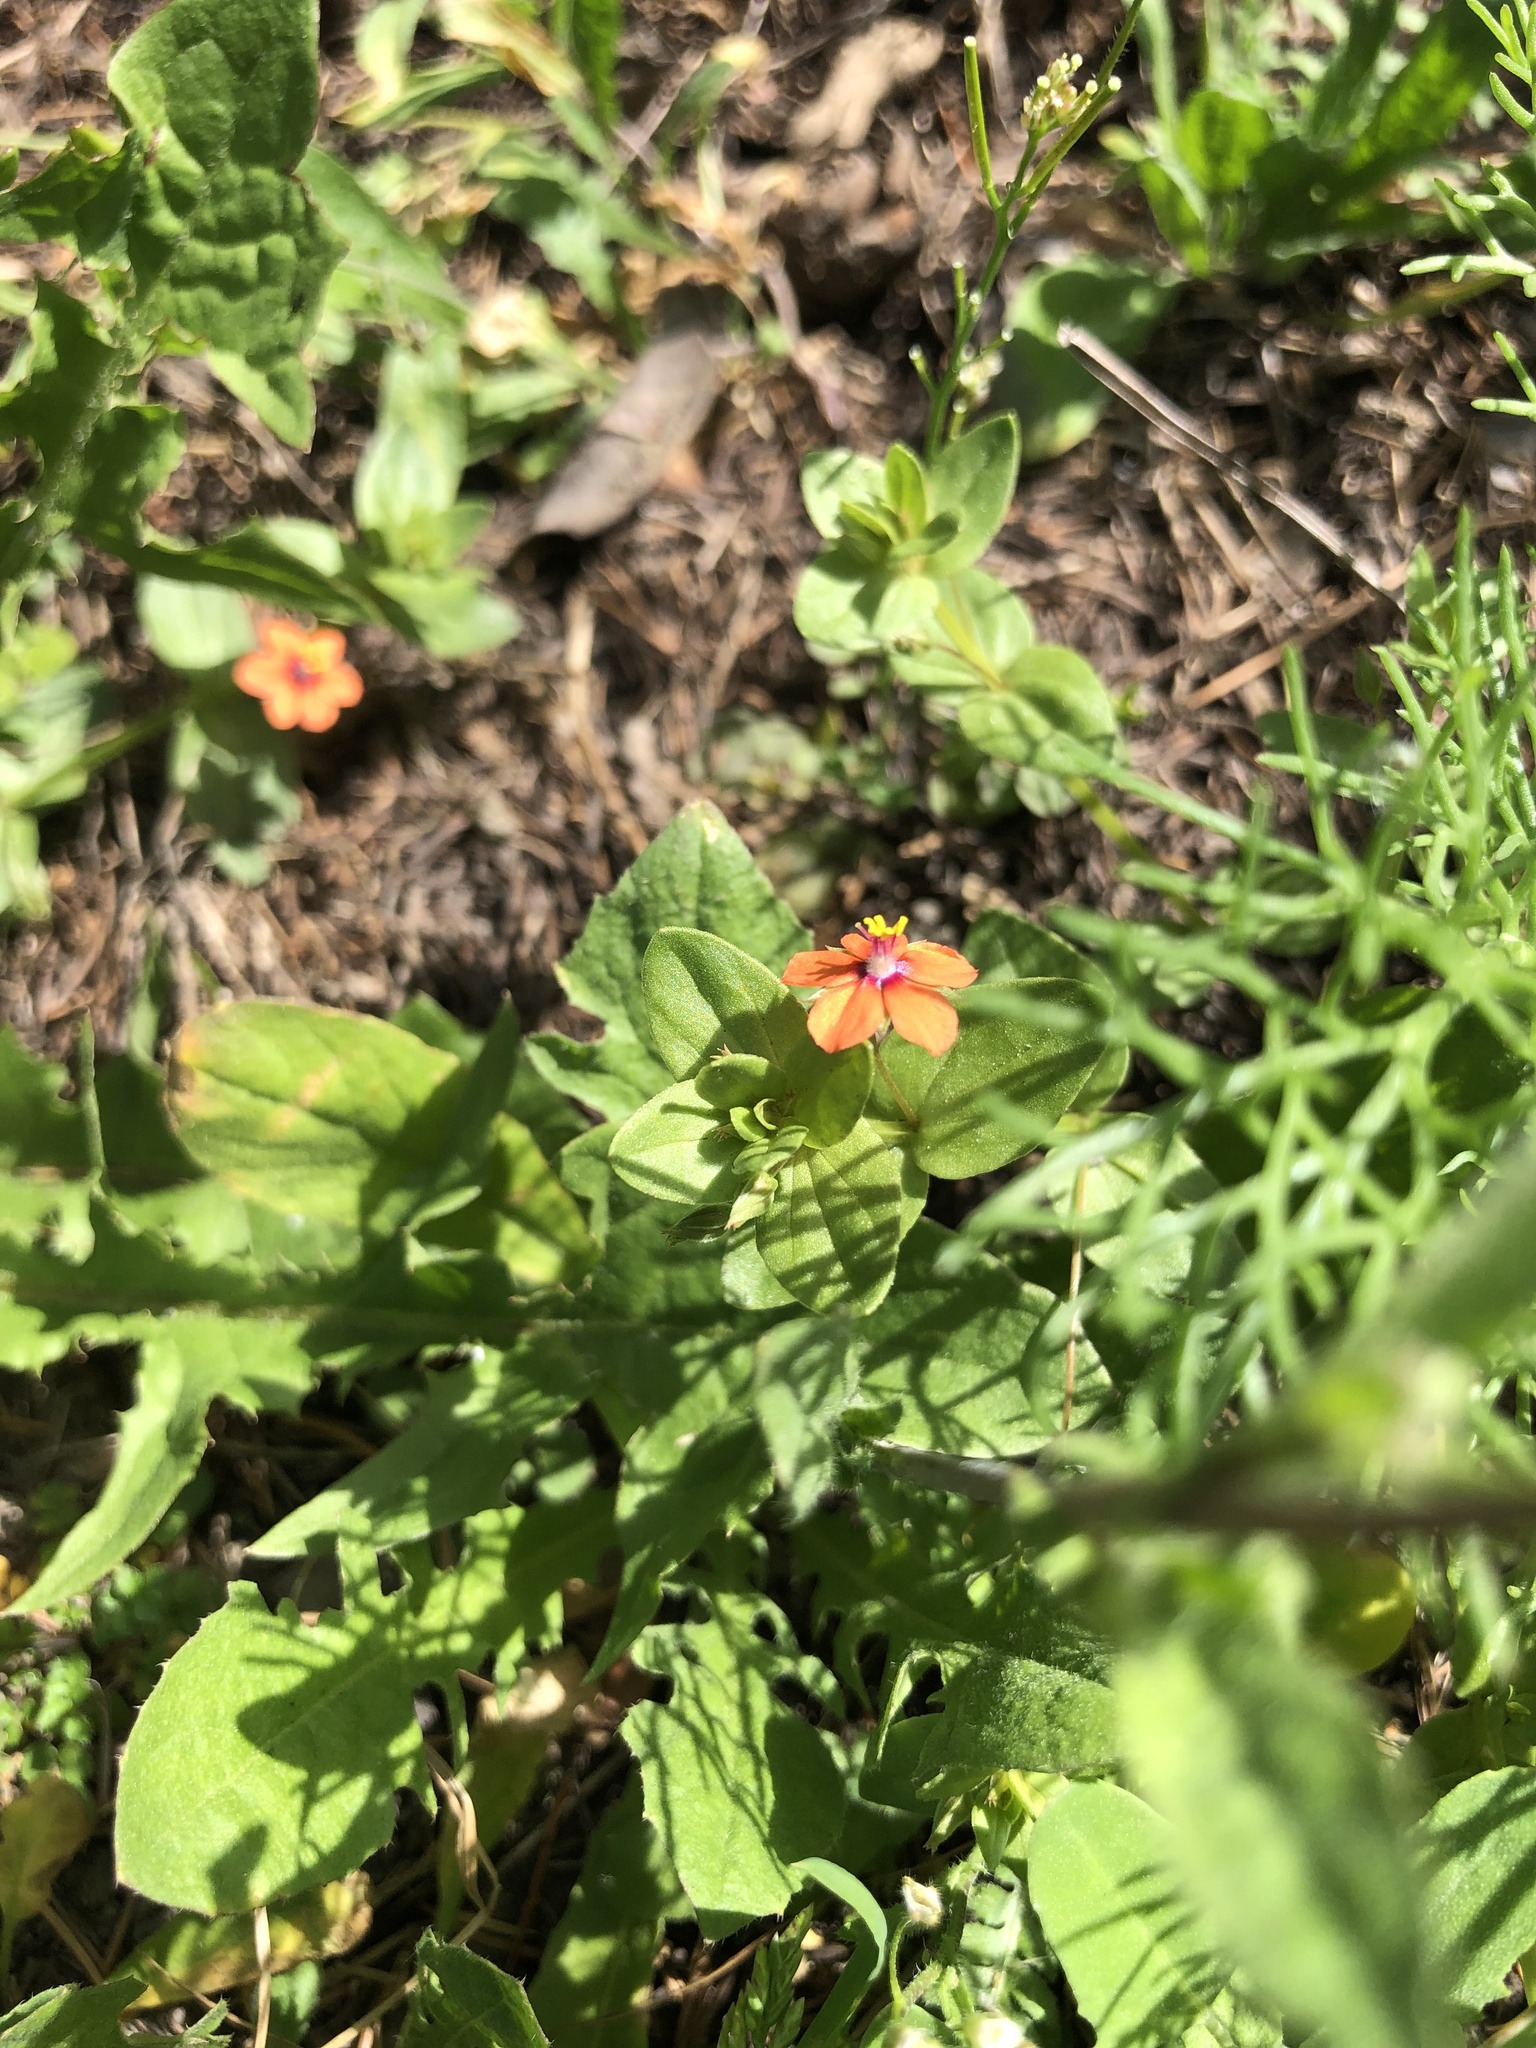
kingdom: Plantae
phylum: Tracheophyta
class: Magnoliopsida
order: Ericales
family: Primulaceae
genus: Lysimachia
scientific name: Lysimachia arvensis
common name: Scarlet pimpernel
